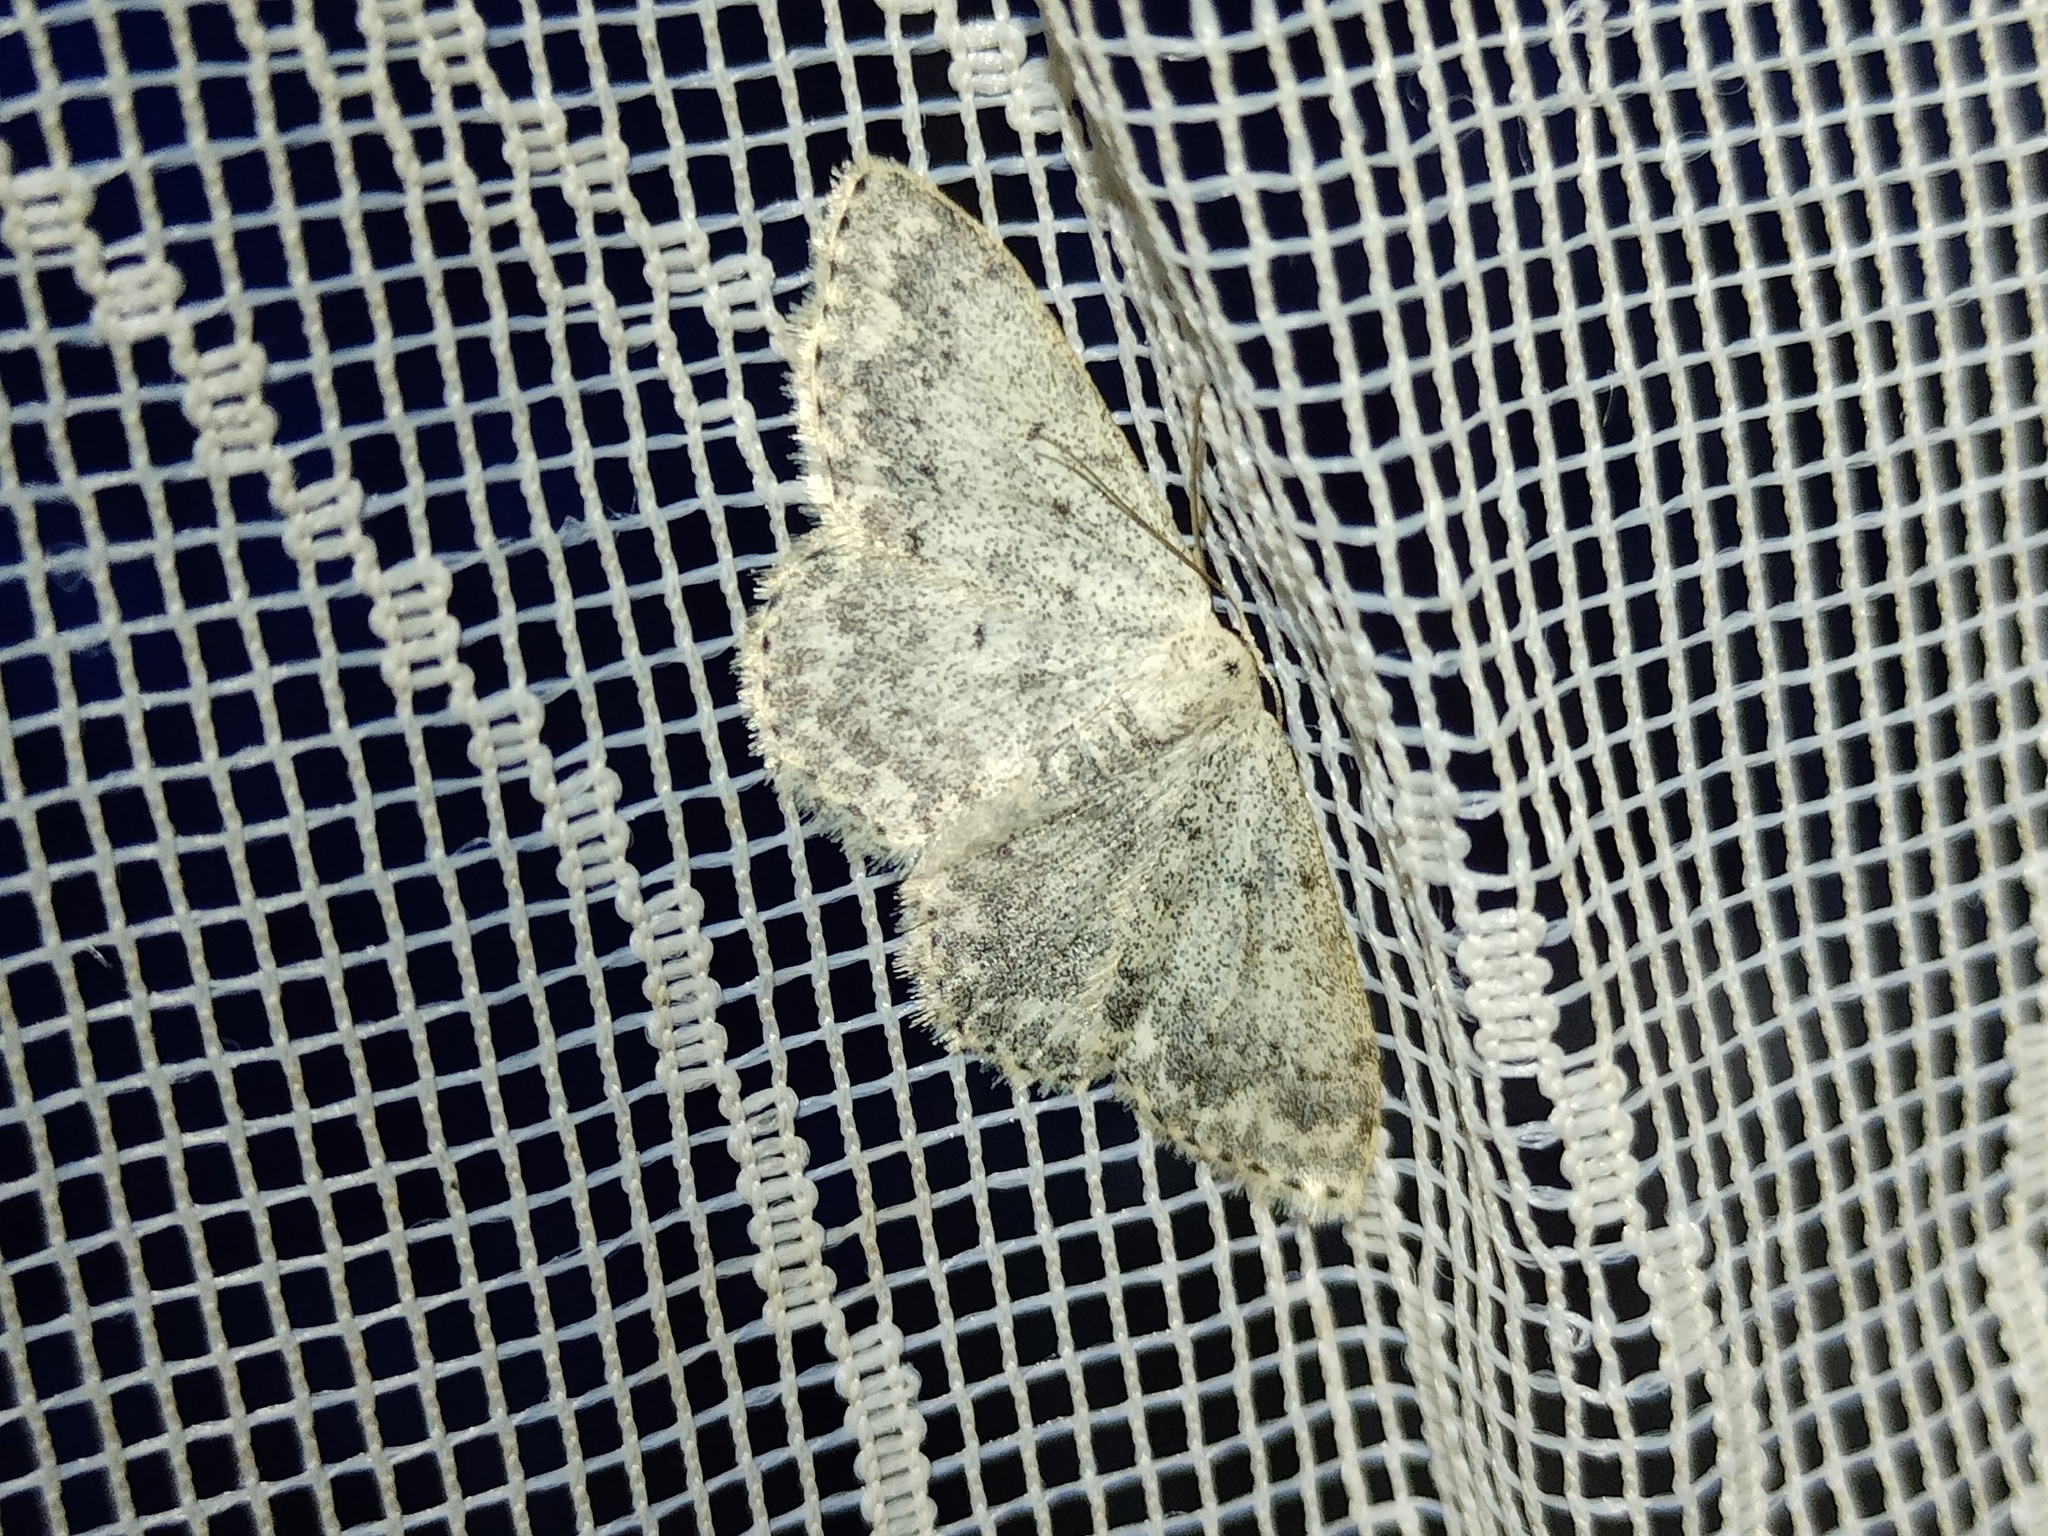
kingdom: Animalia
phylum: Arthropoda
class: Insecta
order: Lepidoptera
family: Geometridae
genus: Scopula
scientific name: Scopula marginepunctata
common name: Mullein wave
